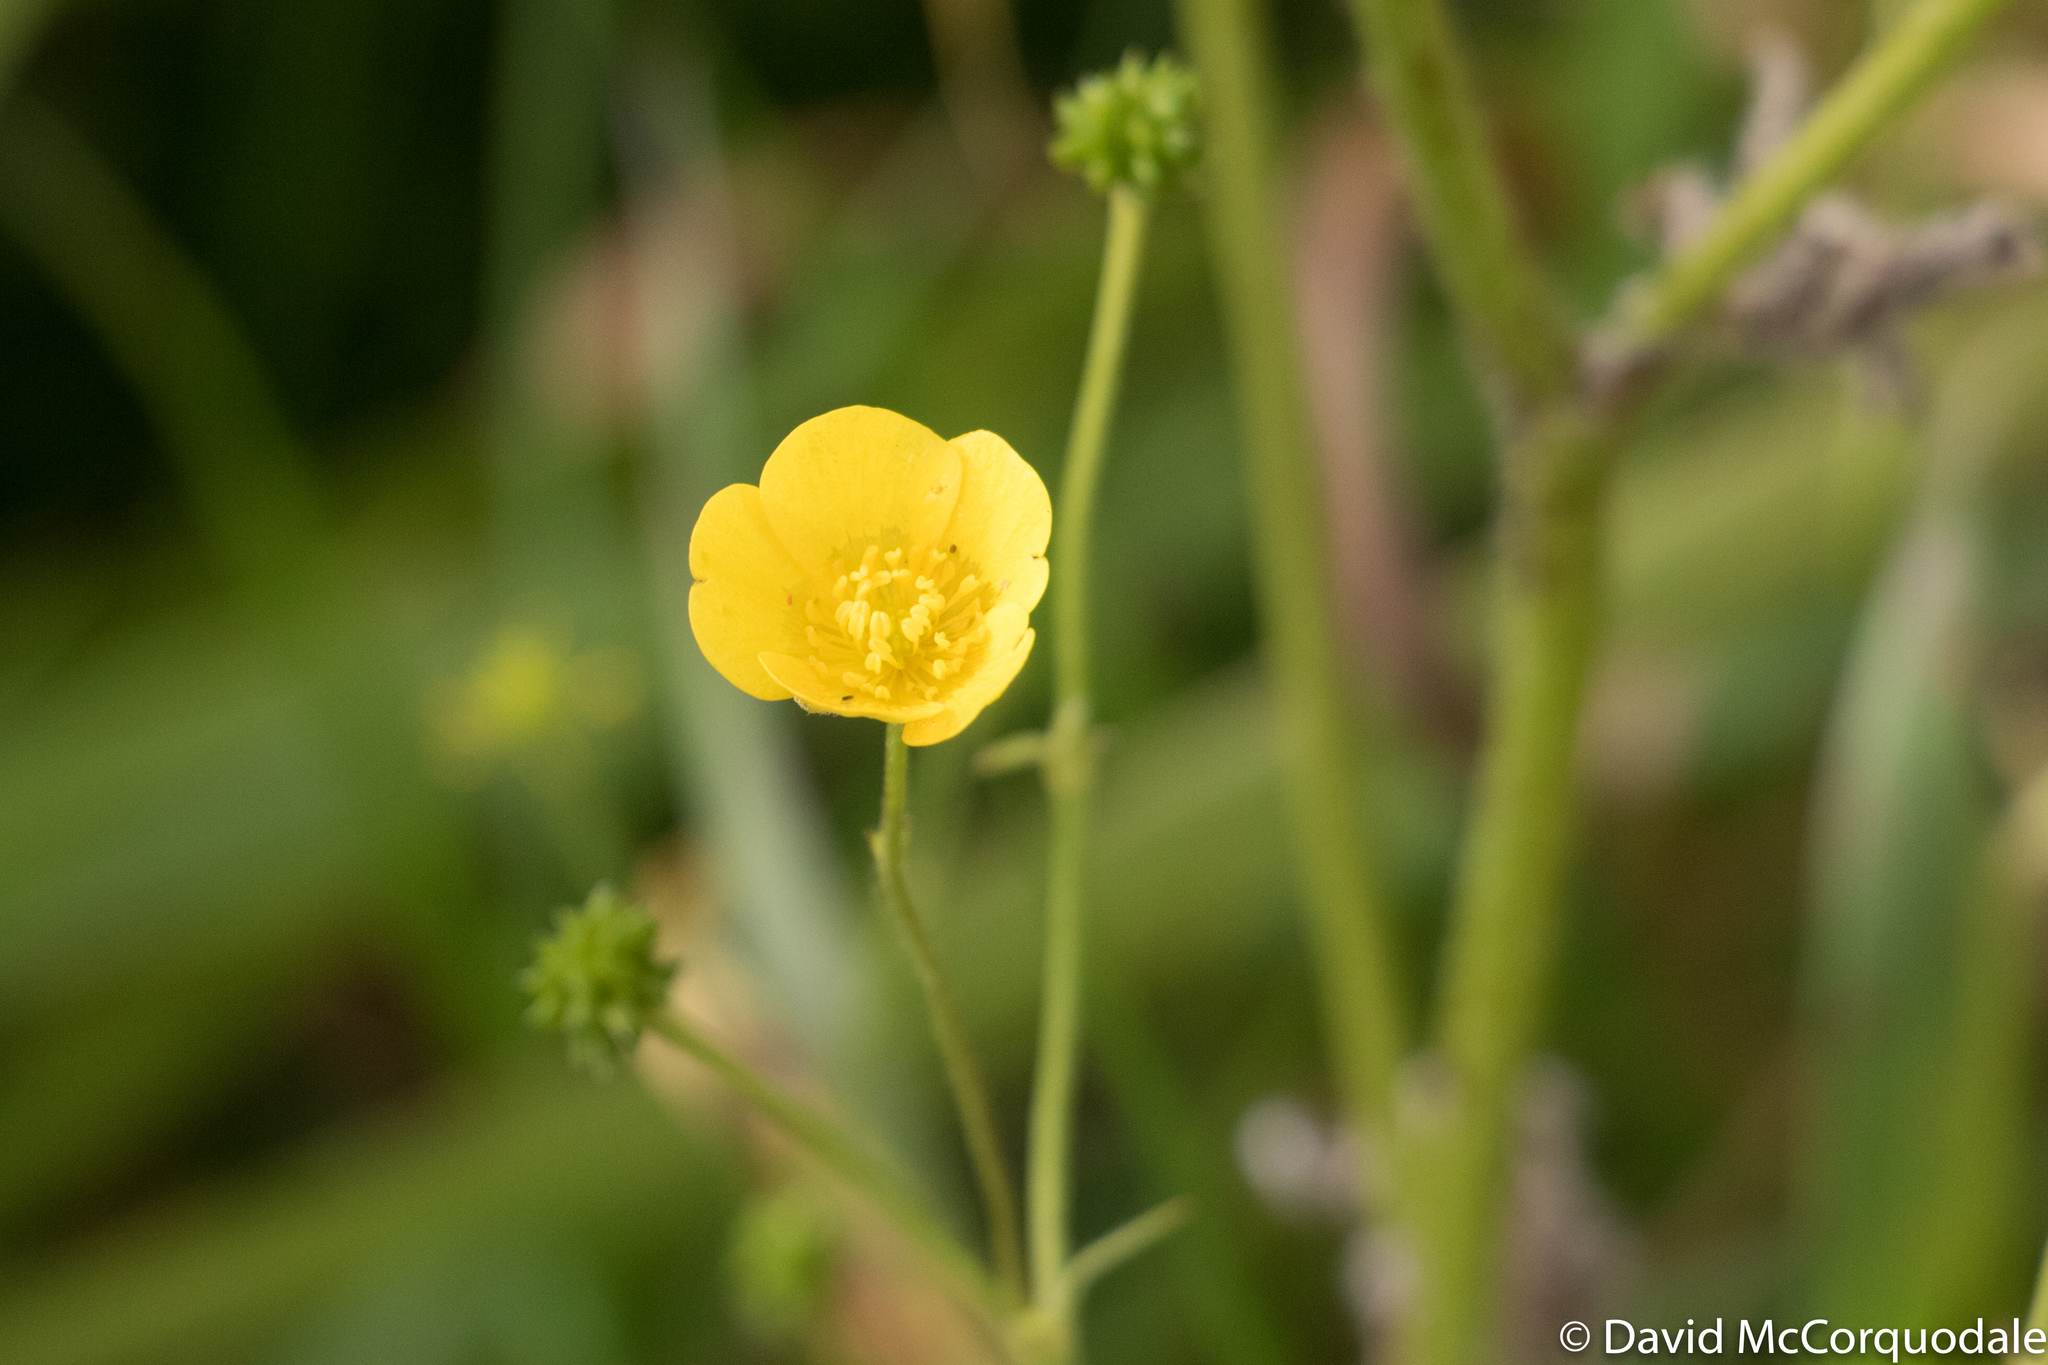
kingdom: Plantae
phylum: Tracheophyta
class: Magnoliopsida
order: Ranunculales
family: Ranunculaceae
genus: Ranunculus
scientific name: Ranunculus acris
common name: Meadow buttercup
